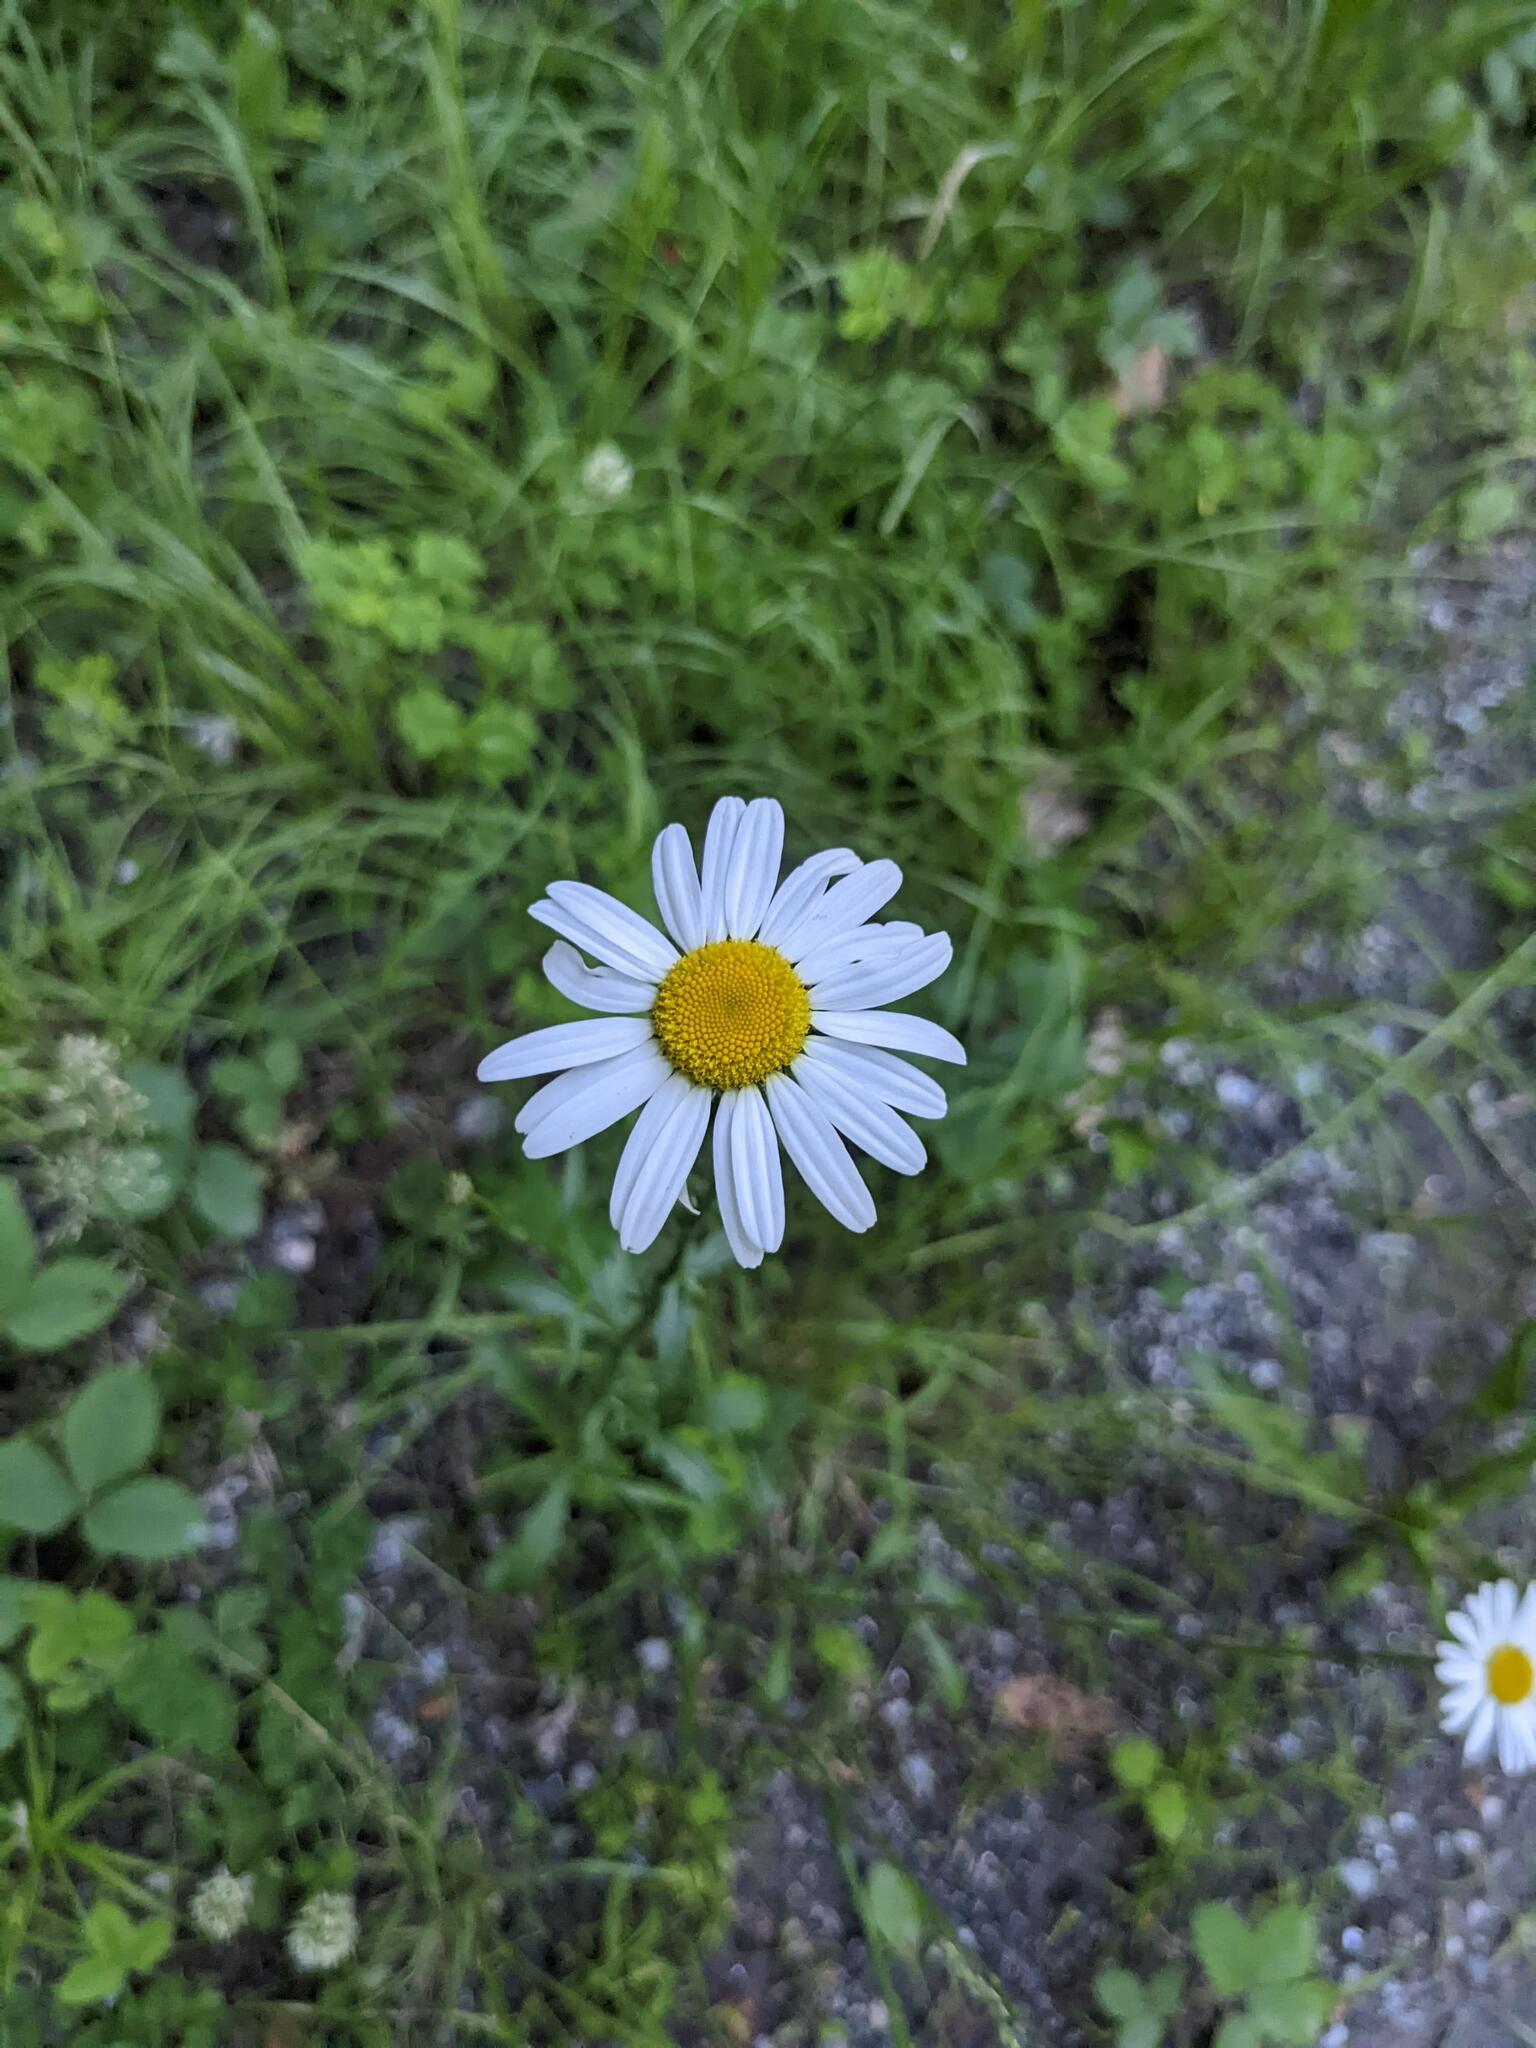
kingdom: Plantae
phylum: Tracheophyta
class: Magnoliopsida
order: Asterales
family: Asteraceae
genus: Leucanthemum
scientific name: Leucanthemum vulgare
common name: Oxeye daisy
